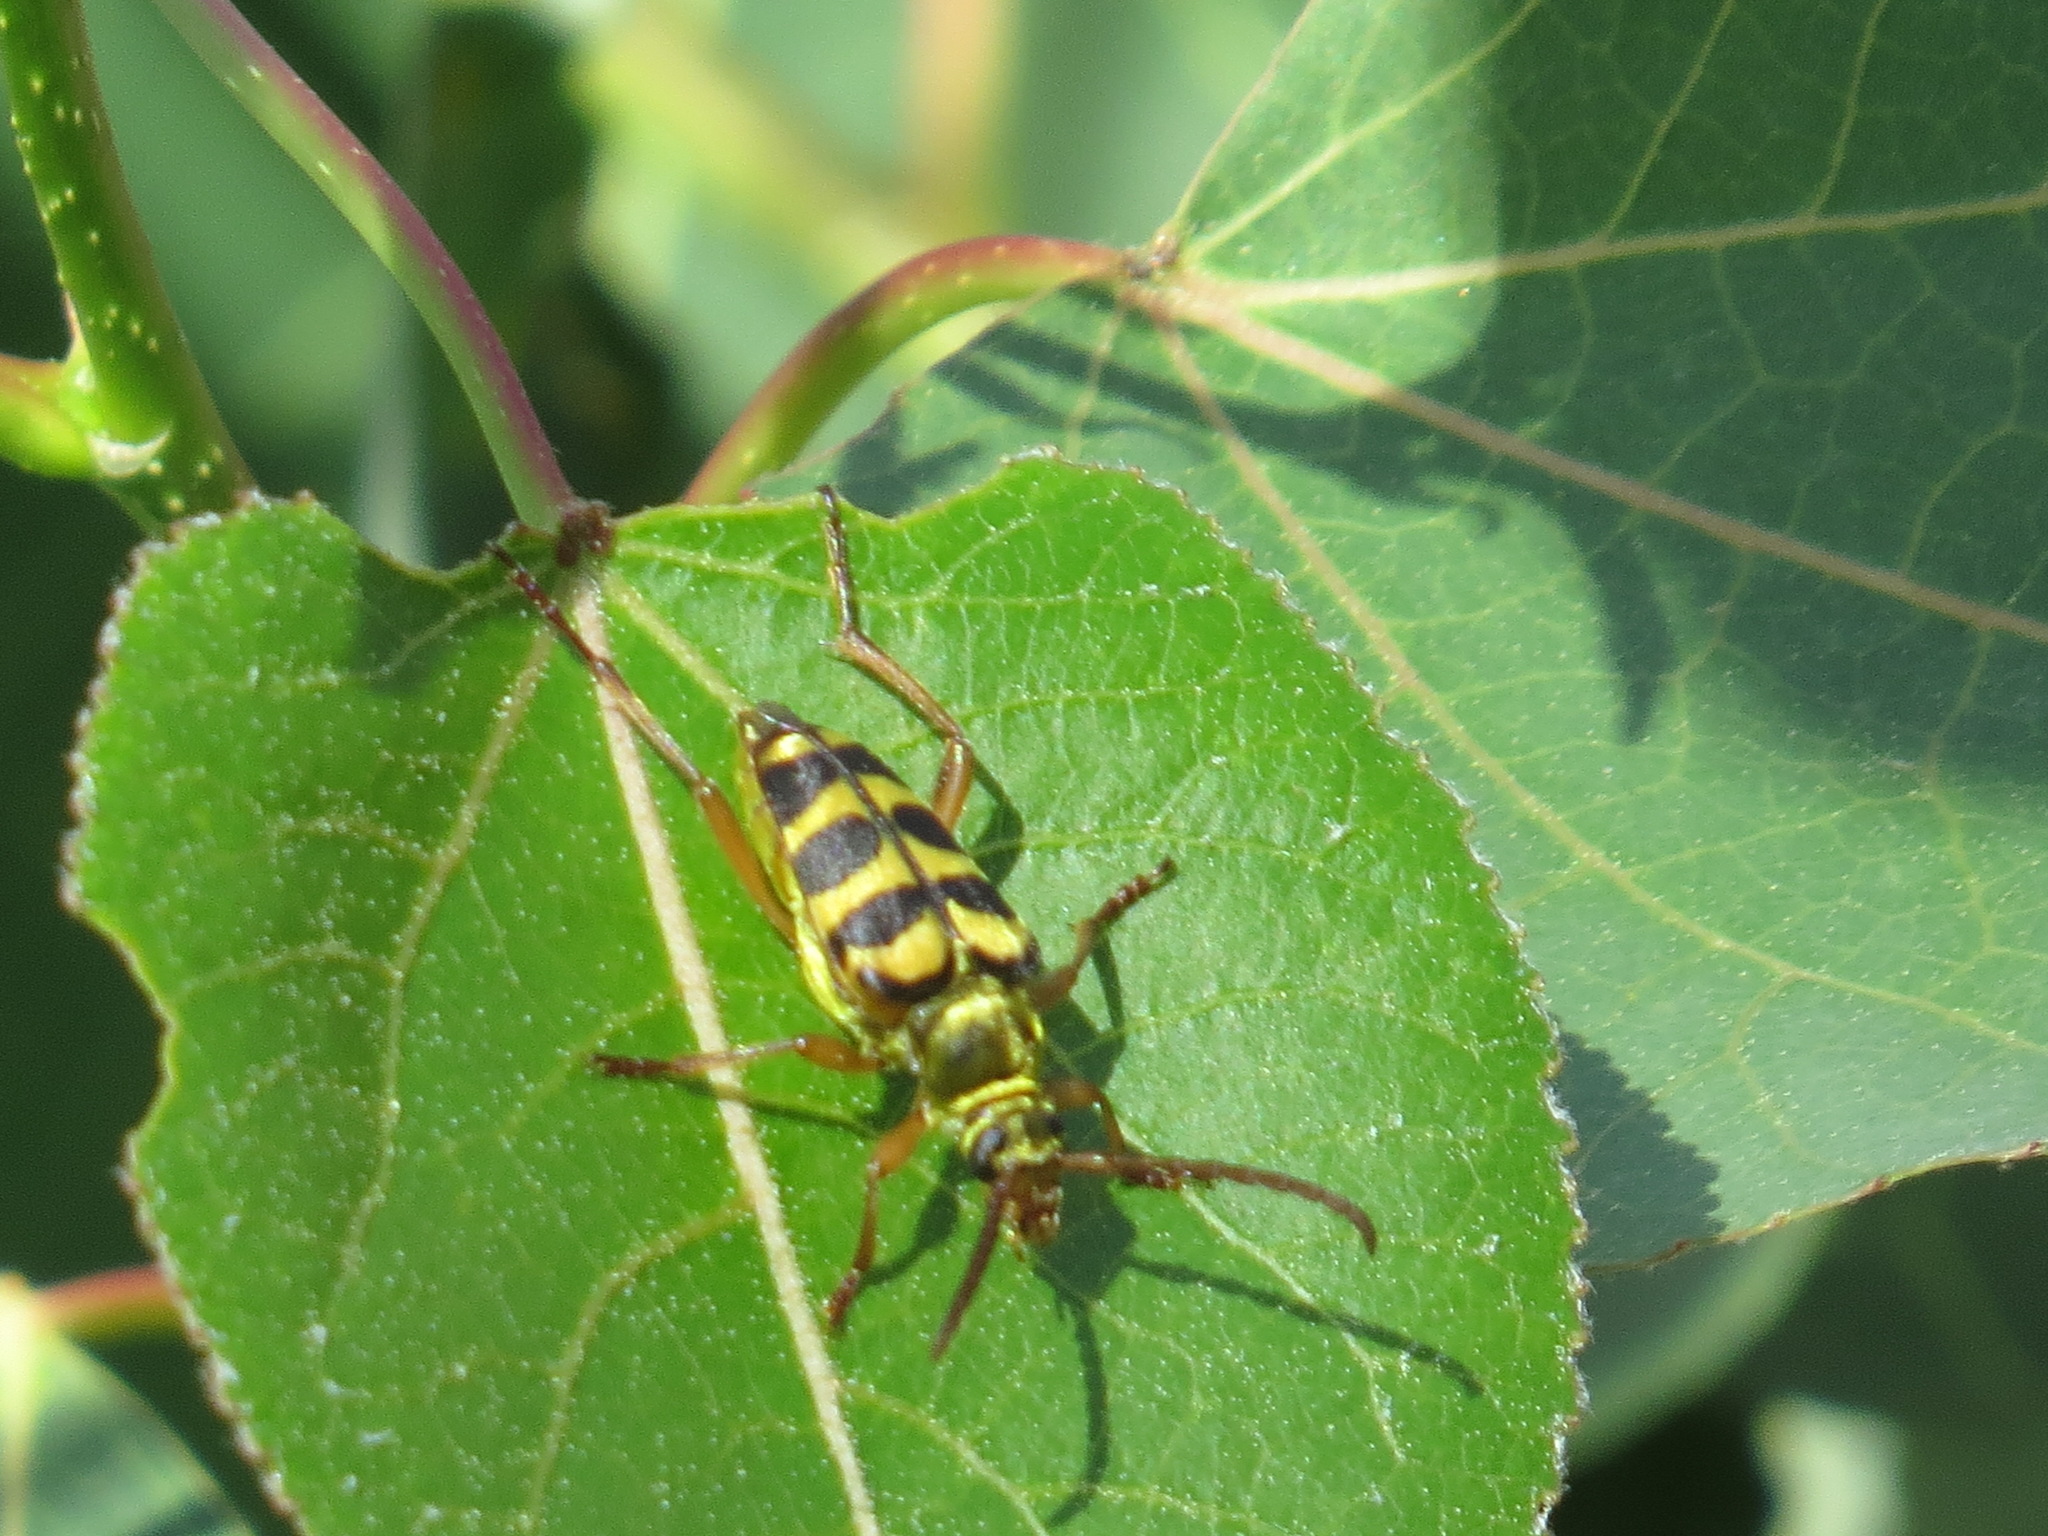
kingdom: Animalia
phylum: Arthropoda
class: Insecta
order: Coleoptera
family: Cerambycidae
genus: Strophiona
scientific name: Strophiona tigrina
